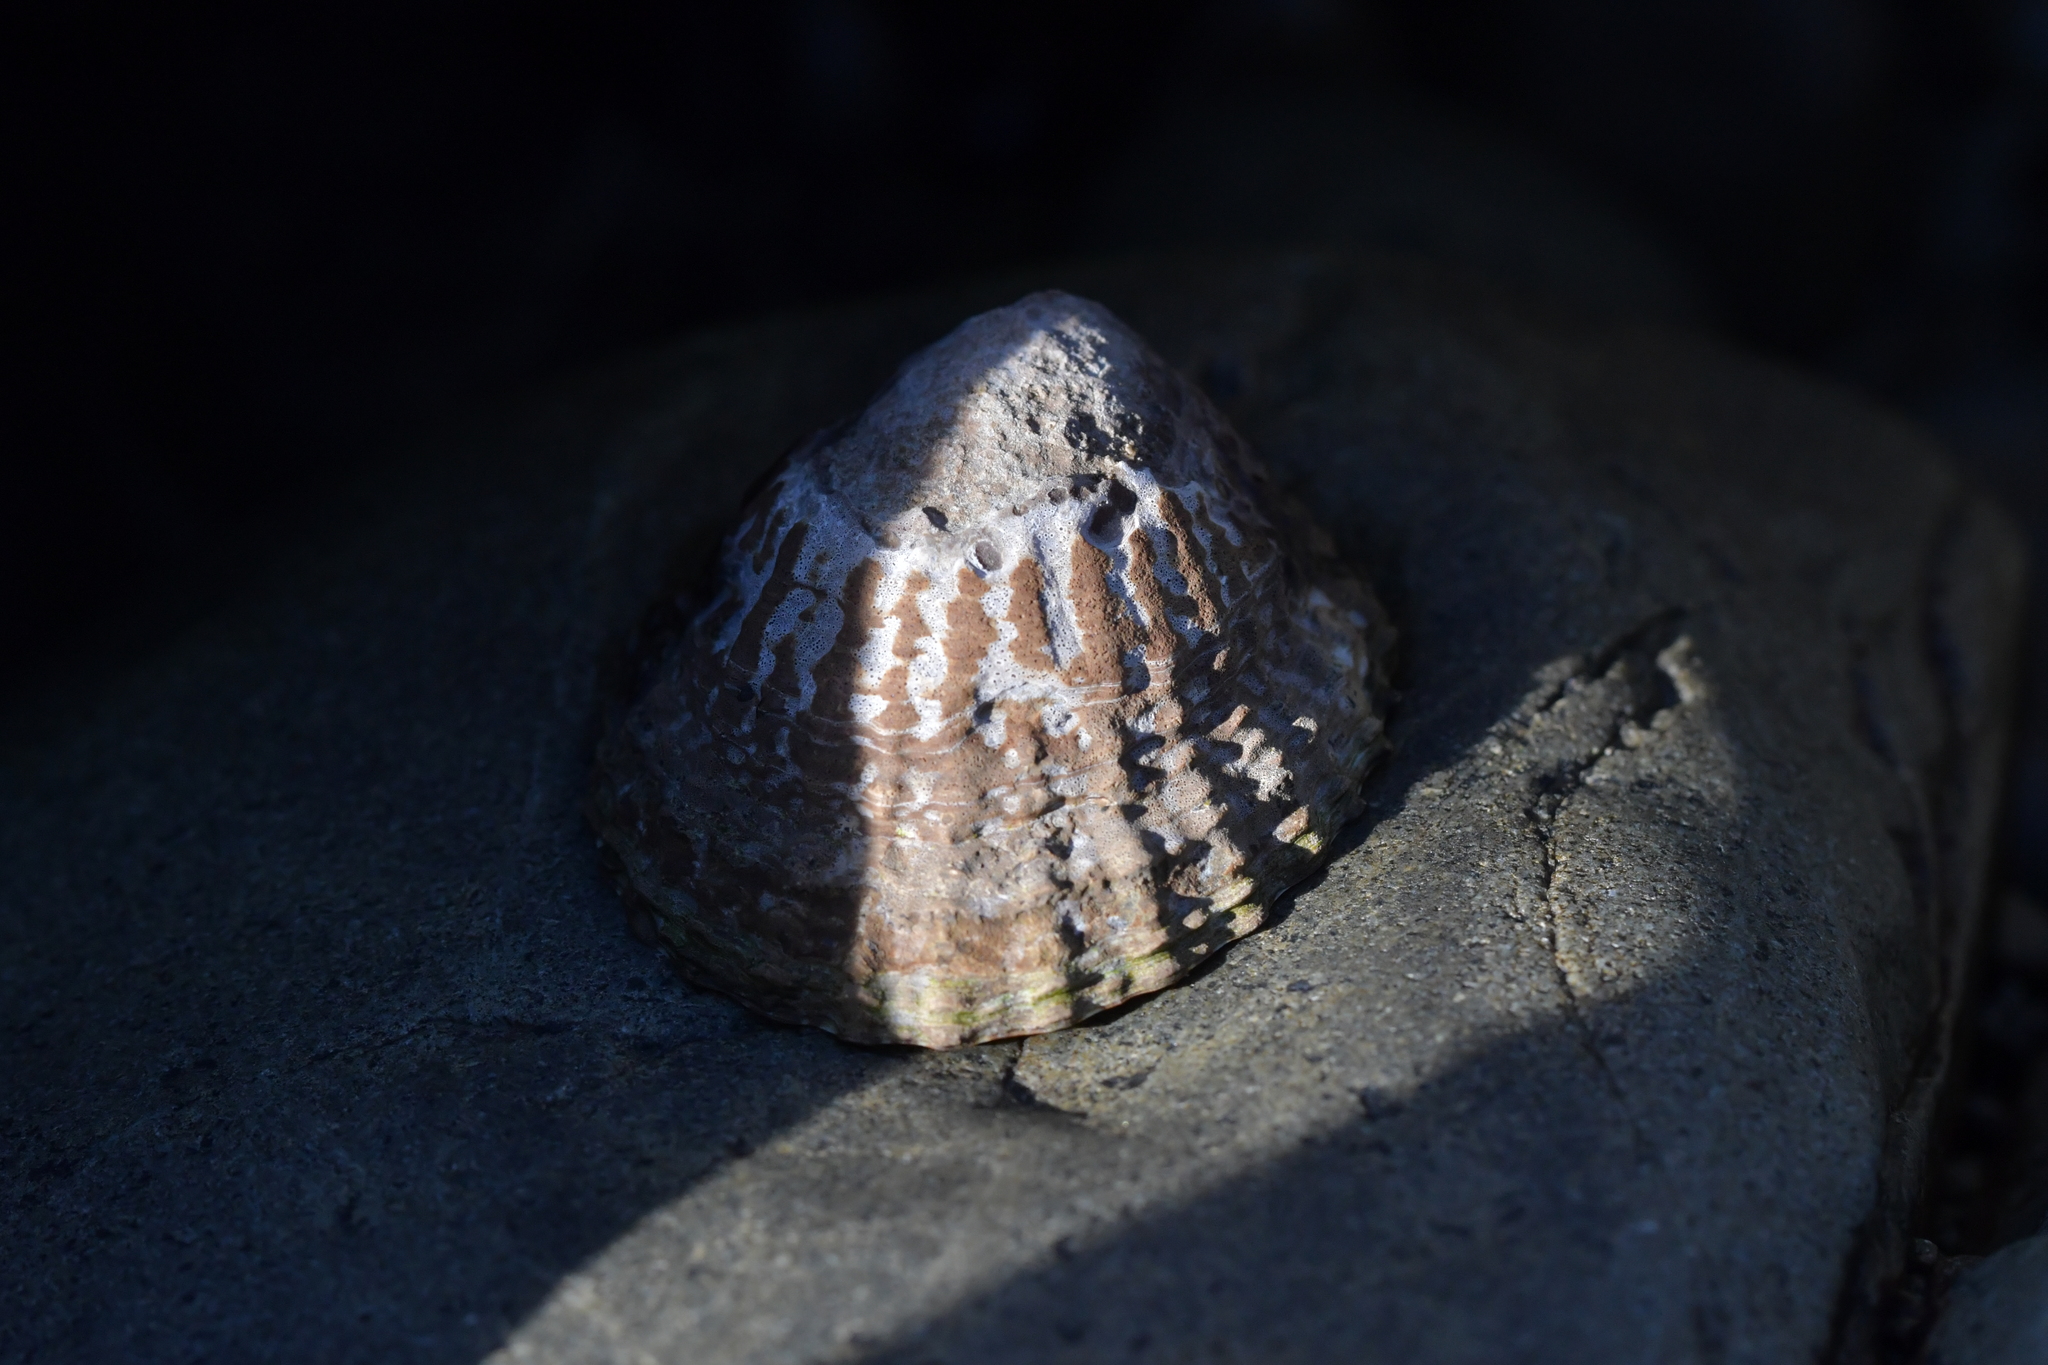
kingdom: Animalia
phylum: Mollusca
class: Gastropoda
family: Nacellidae
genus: Cellana
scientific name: Cellana denticulata
